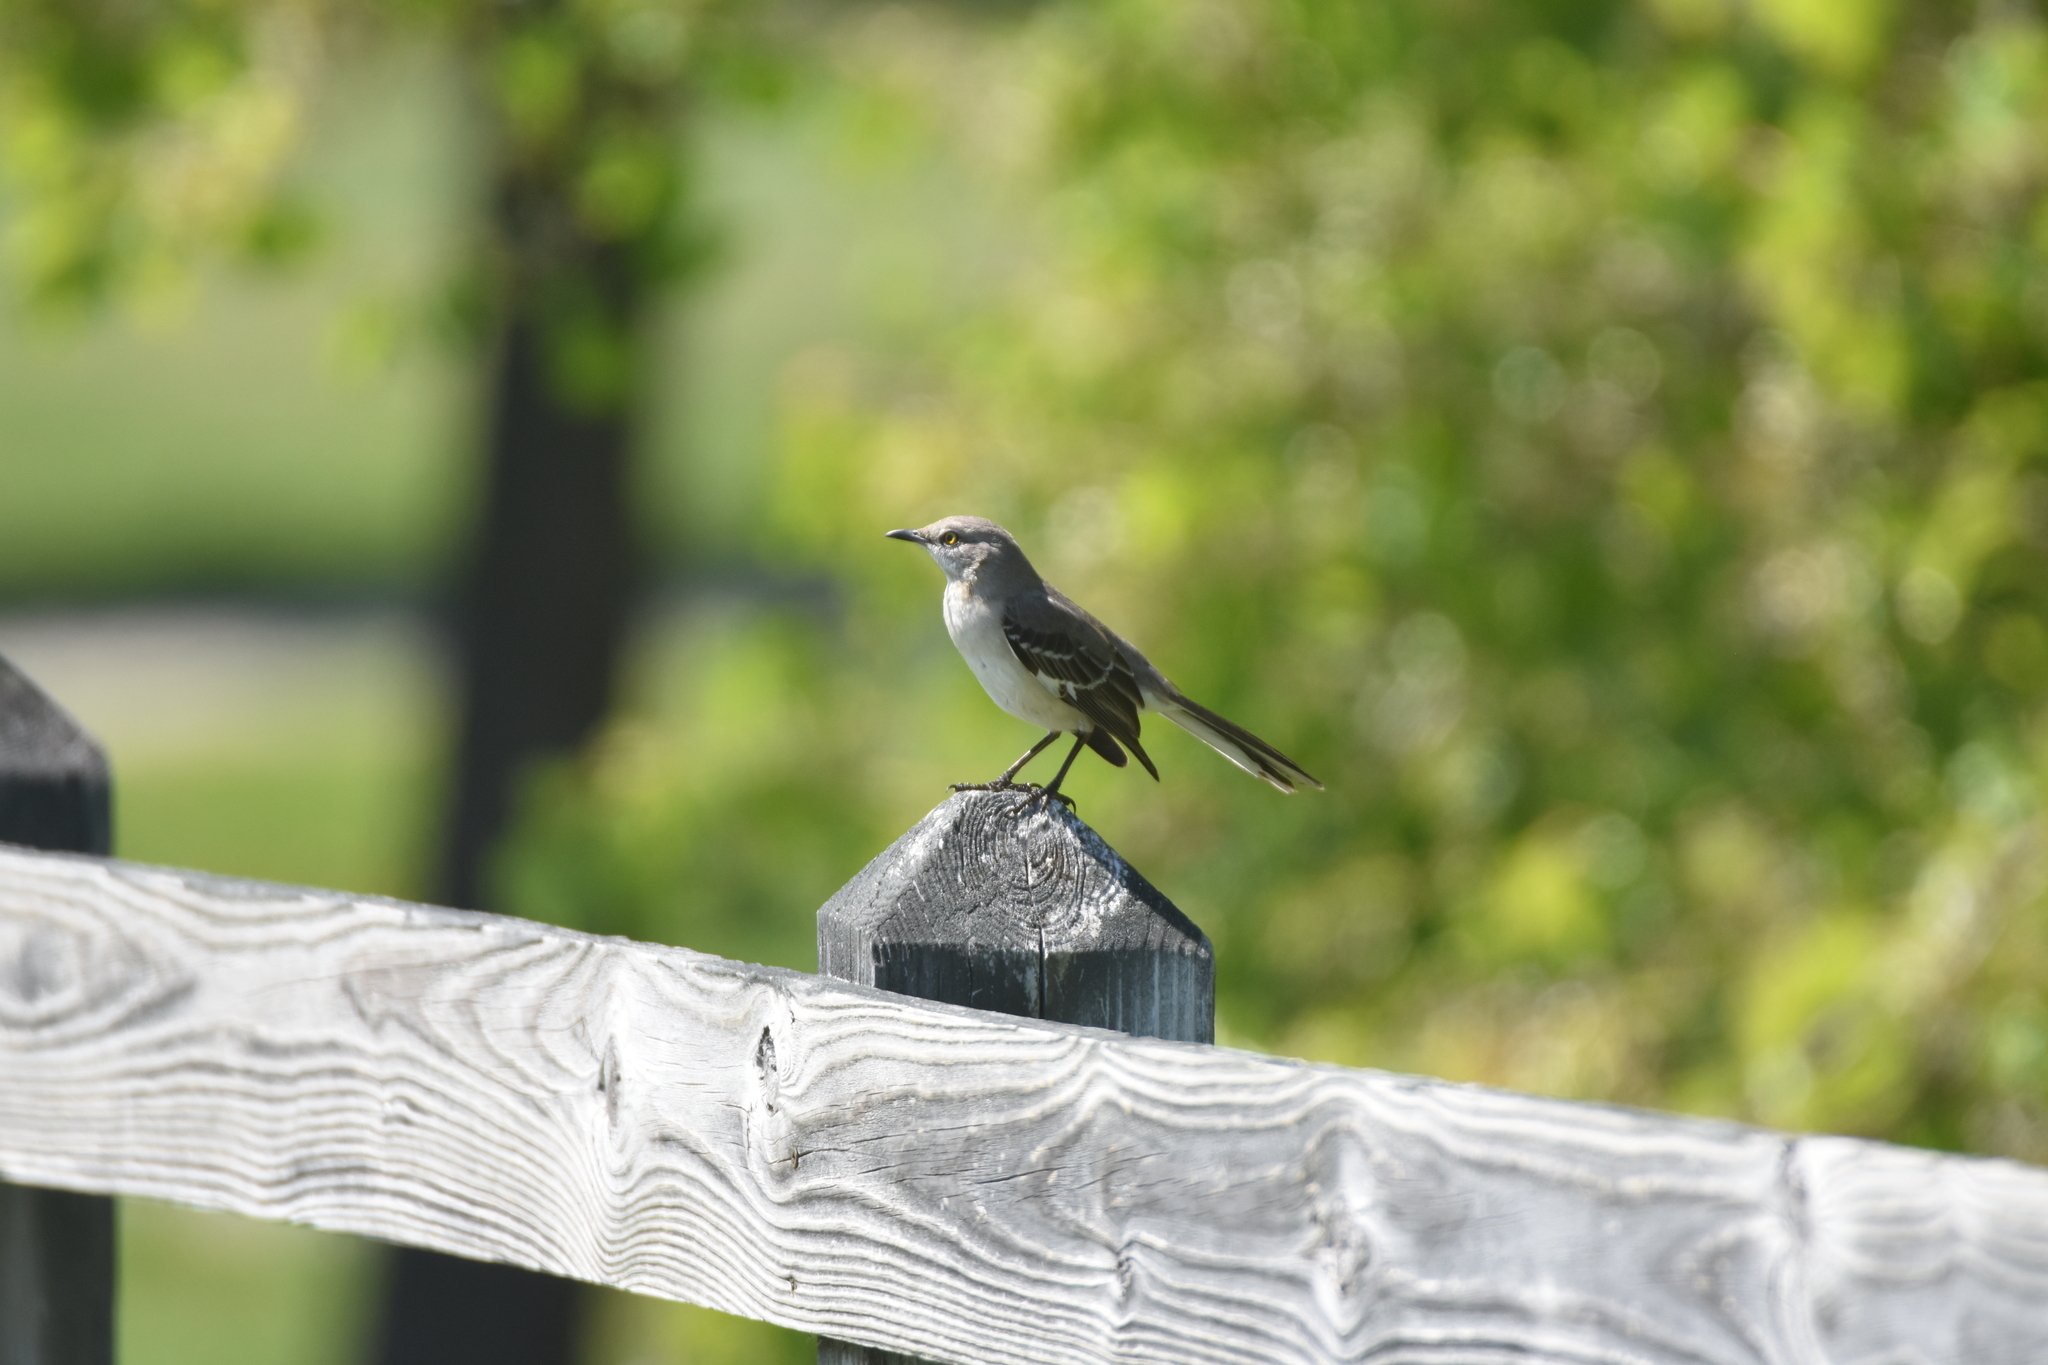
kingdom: Animalia
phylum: Chordata
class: Aves
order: Passeriformes
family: Mimidae
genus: Mimus
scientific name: Mimus polyglottos
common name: Northern mockingbird
